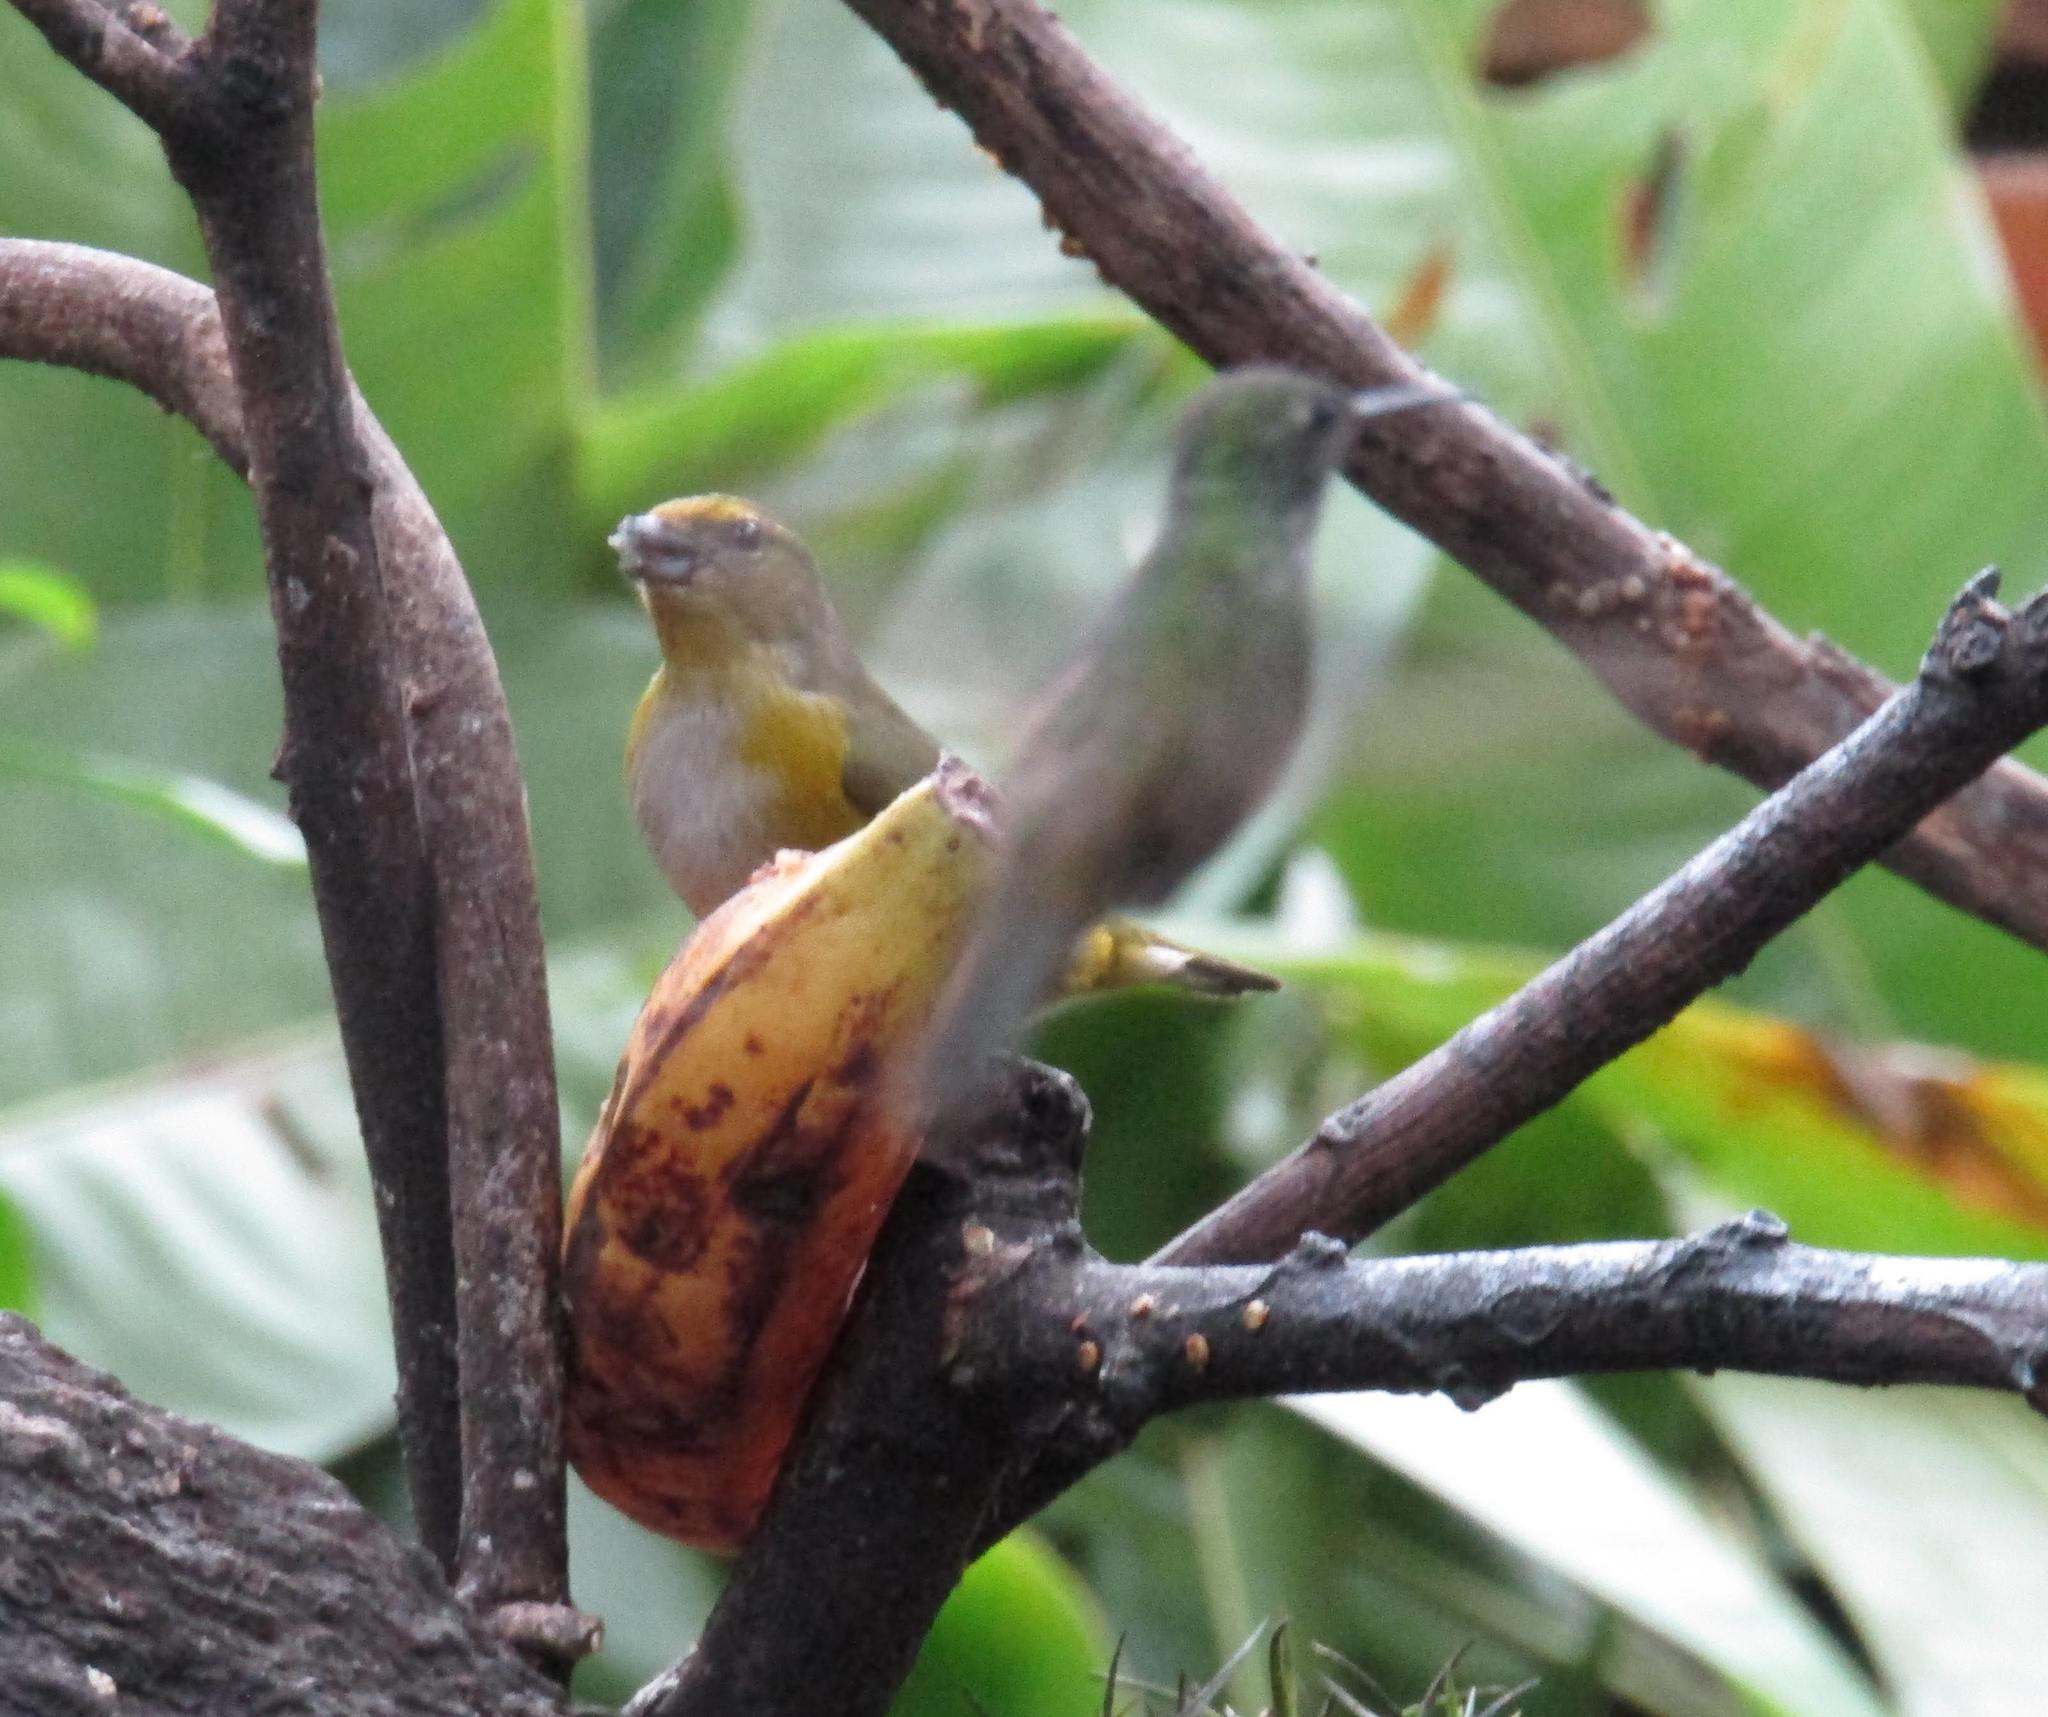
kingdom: Animalia
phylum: Chordata
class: Aves
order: Passeriformes
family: Fringillidae
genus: Euphonia
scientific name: Euphonia chlorotica
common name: Purple-throated euphonia
